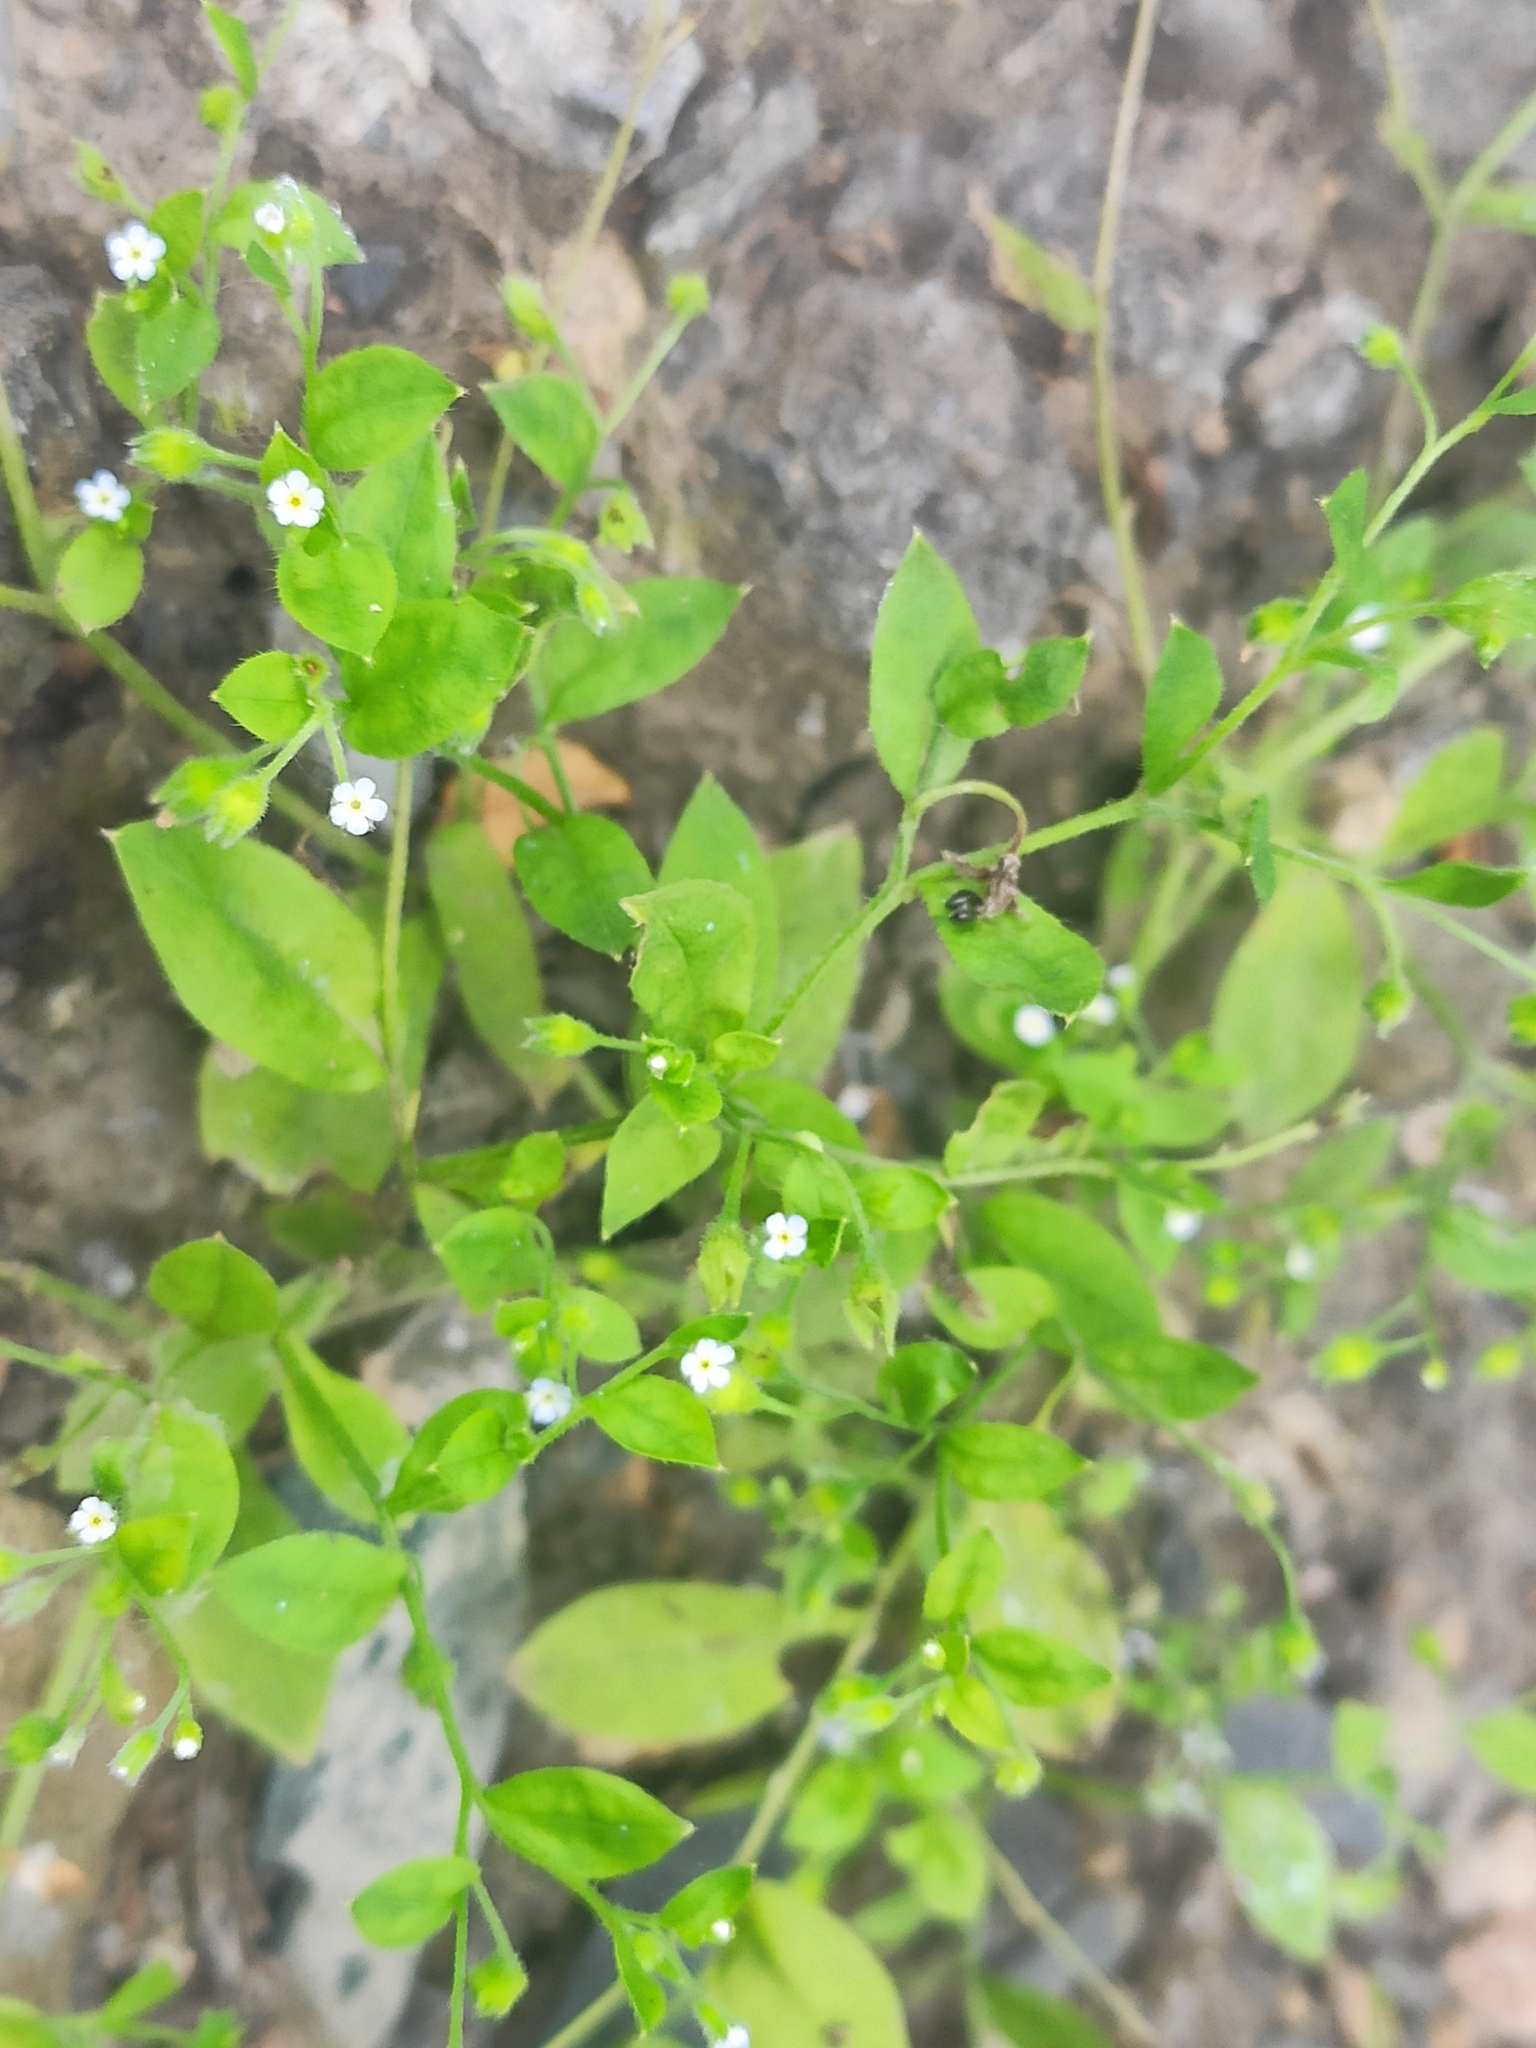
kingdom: Plantae
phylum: Tracheophyta
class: Magnoliopsida
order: Boraginales
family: Boraginaceae
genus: Myosotis
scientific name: Myosotis sparsiflora
